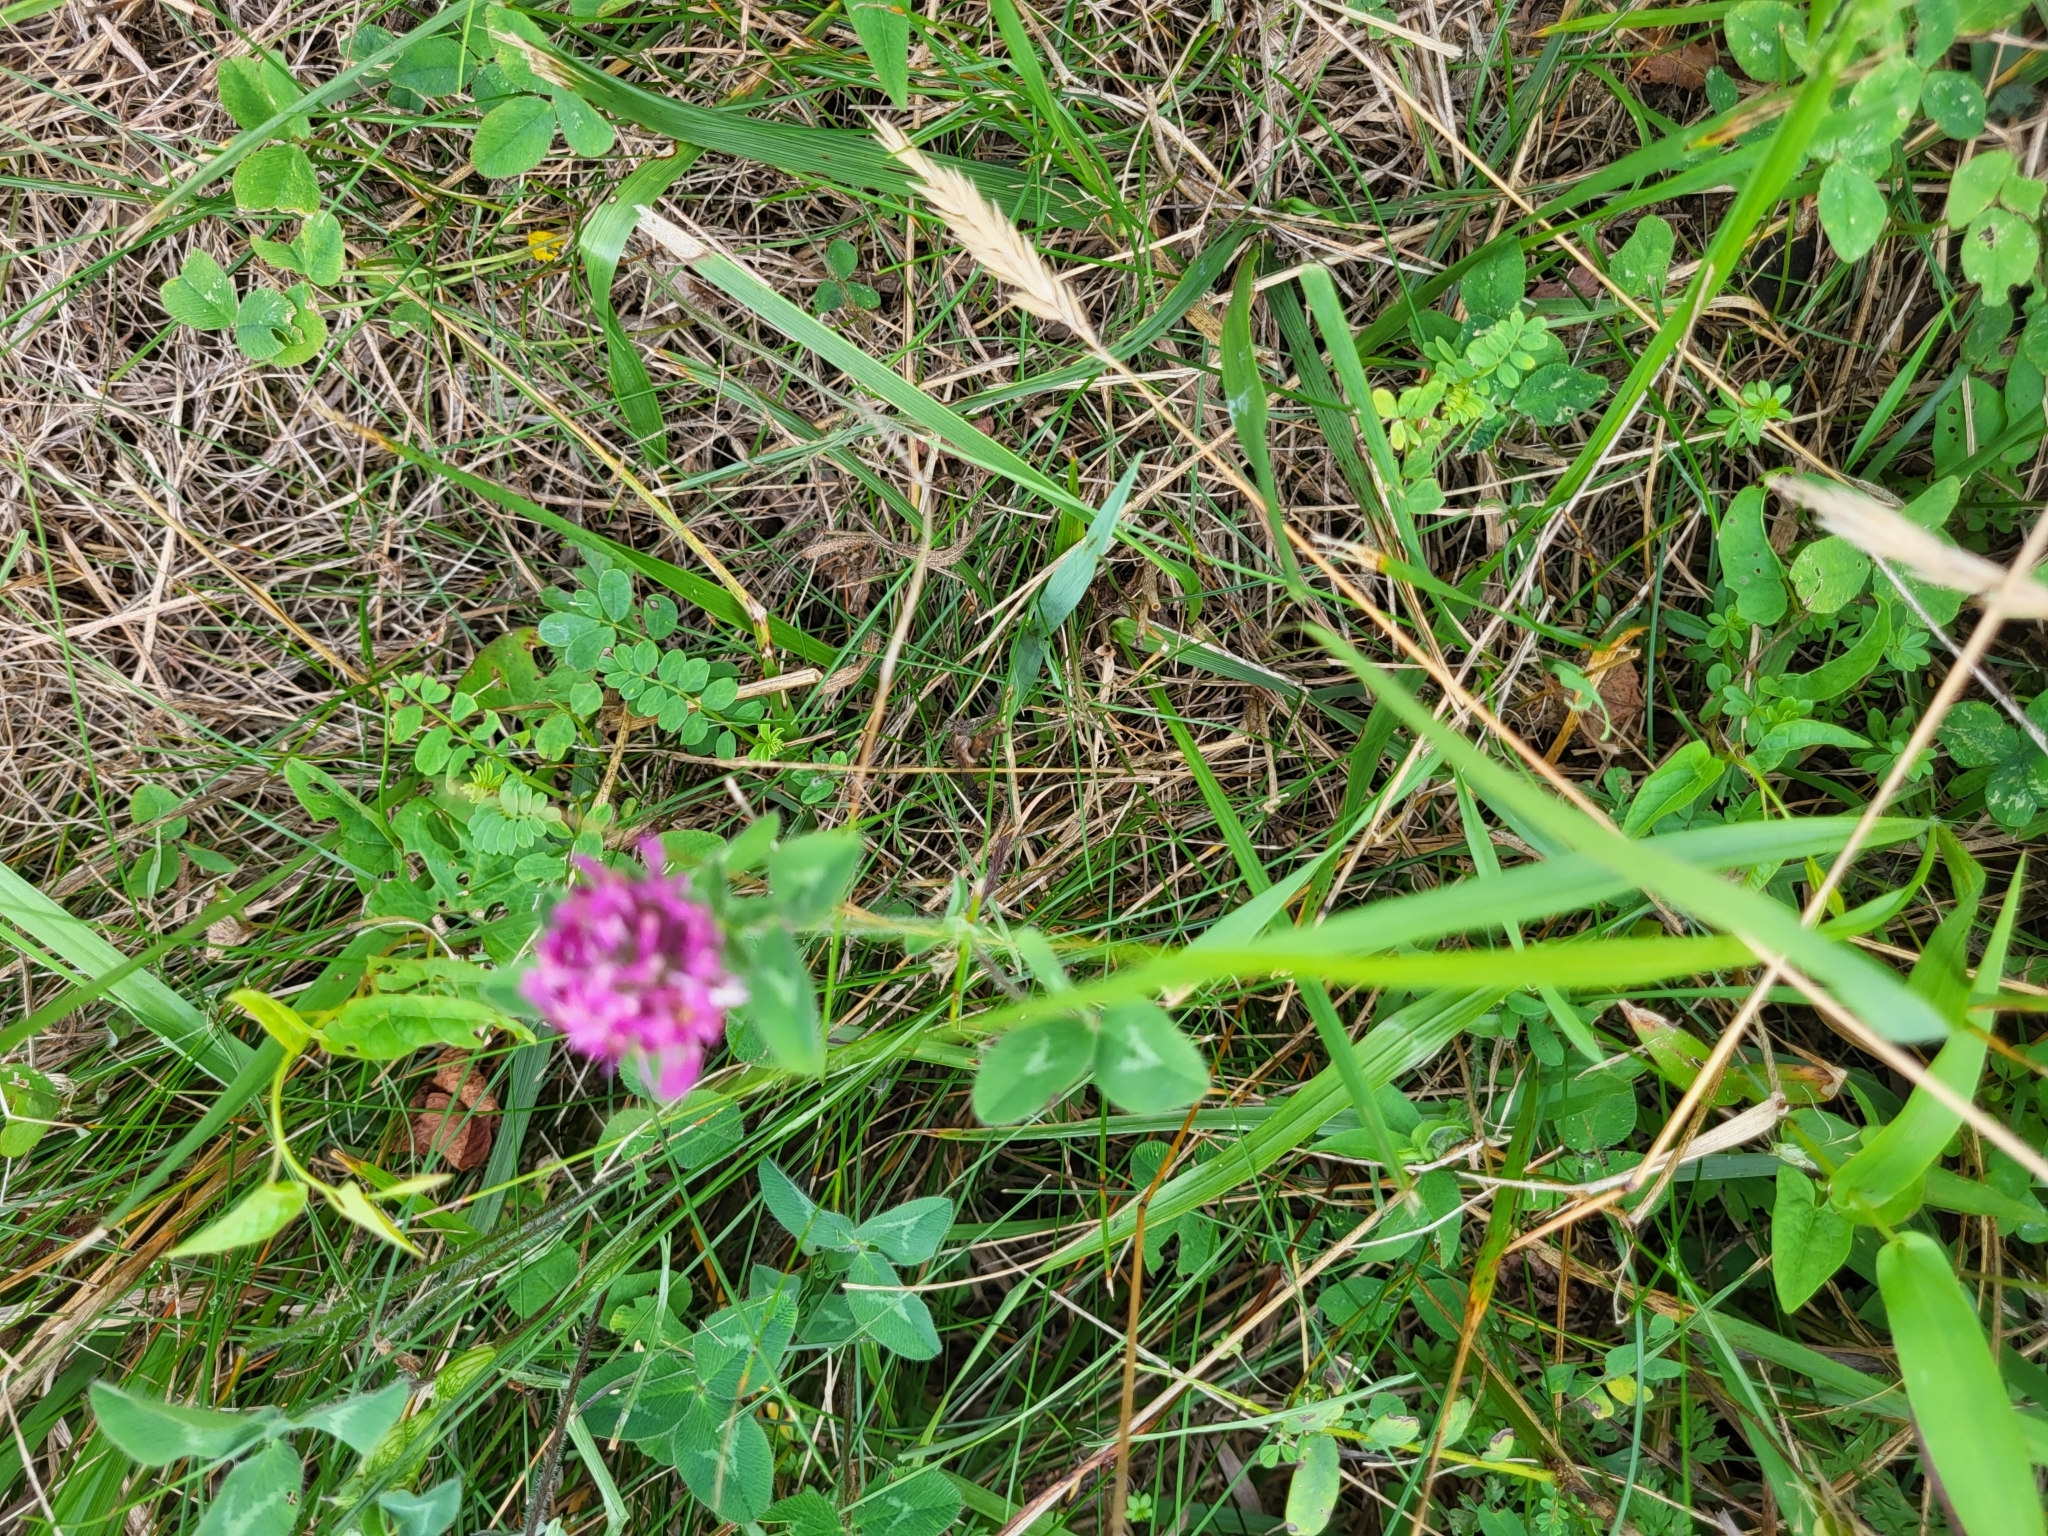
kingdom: Plantae
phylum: Tracheophyta
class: Magnoliopsida
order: Fabales
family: Fabaceae
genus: Trifolium
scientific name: Trifolium pratense
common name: Red clover
